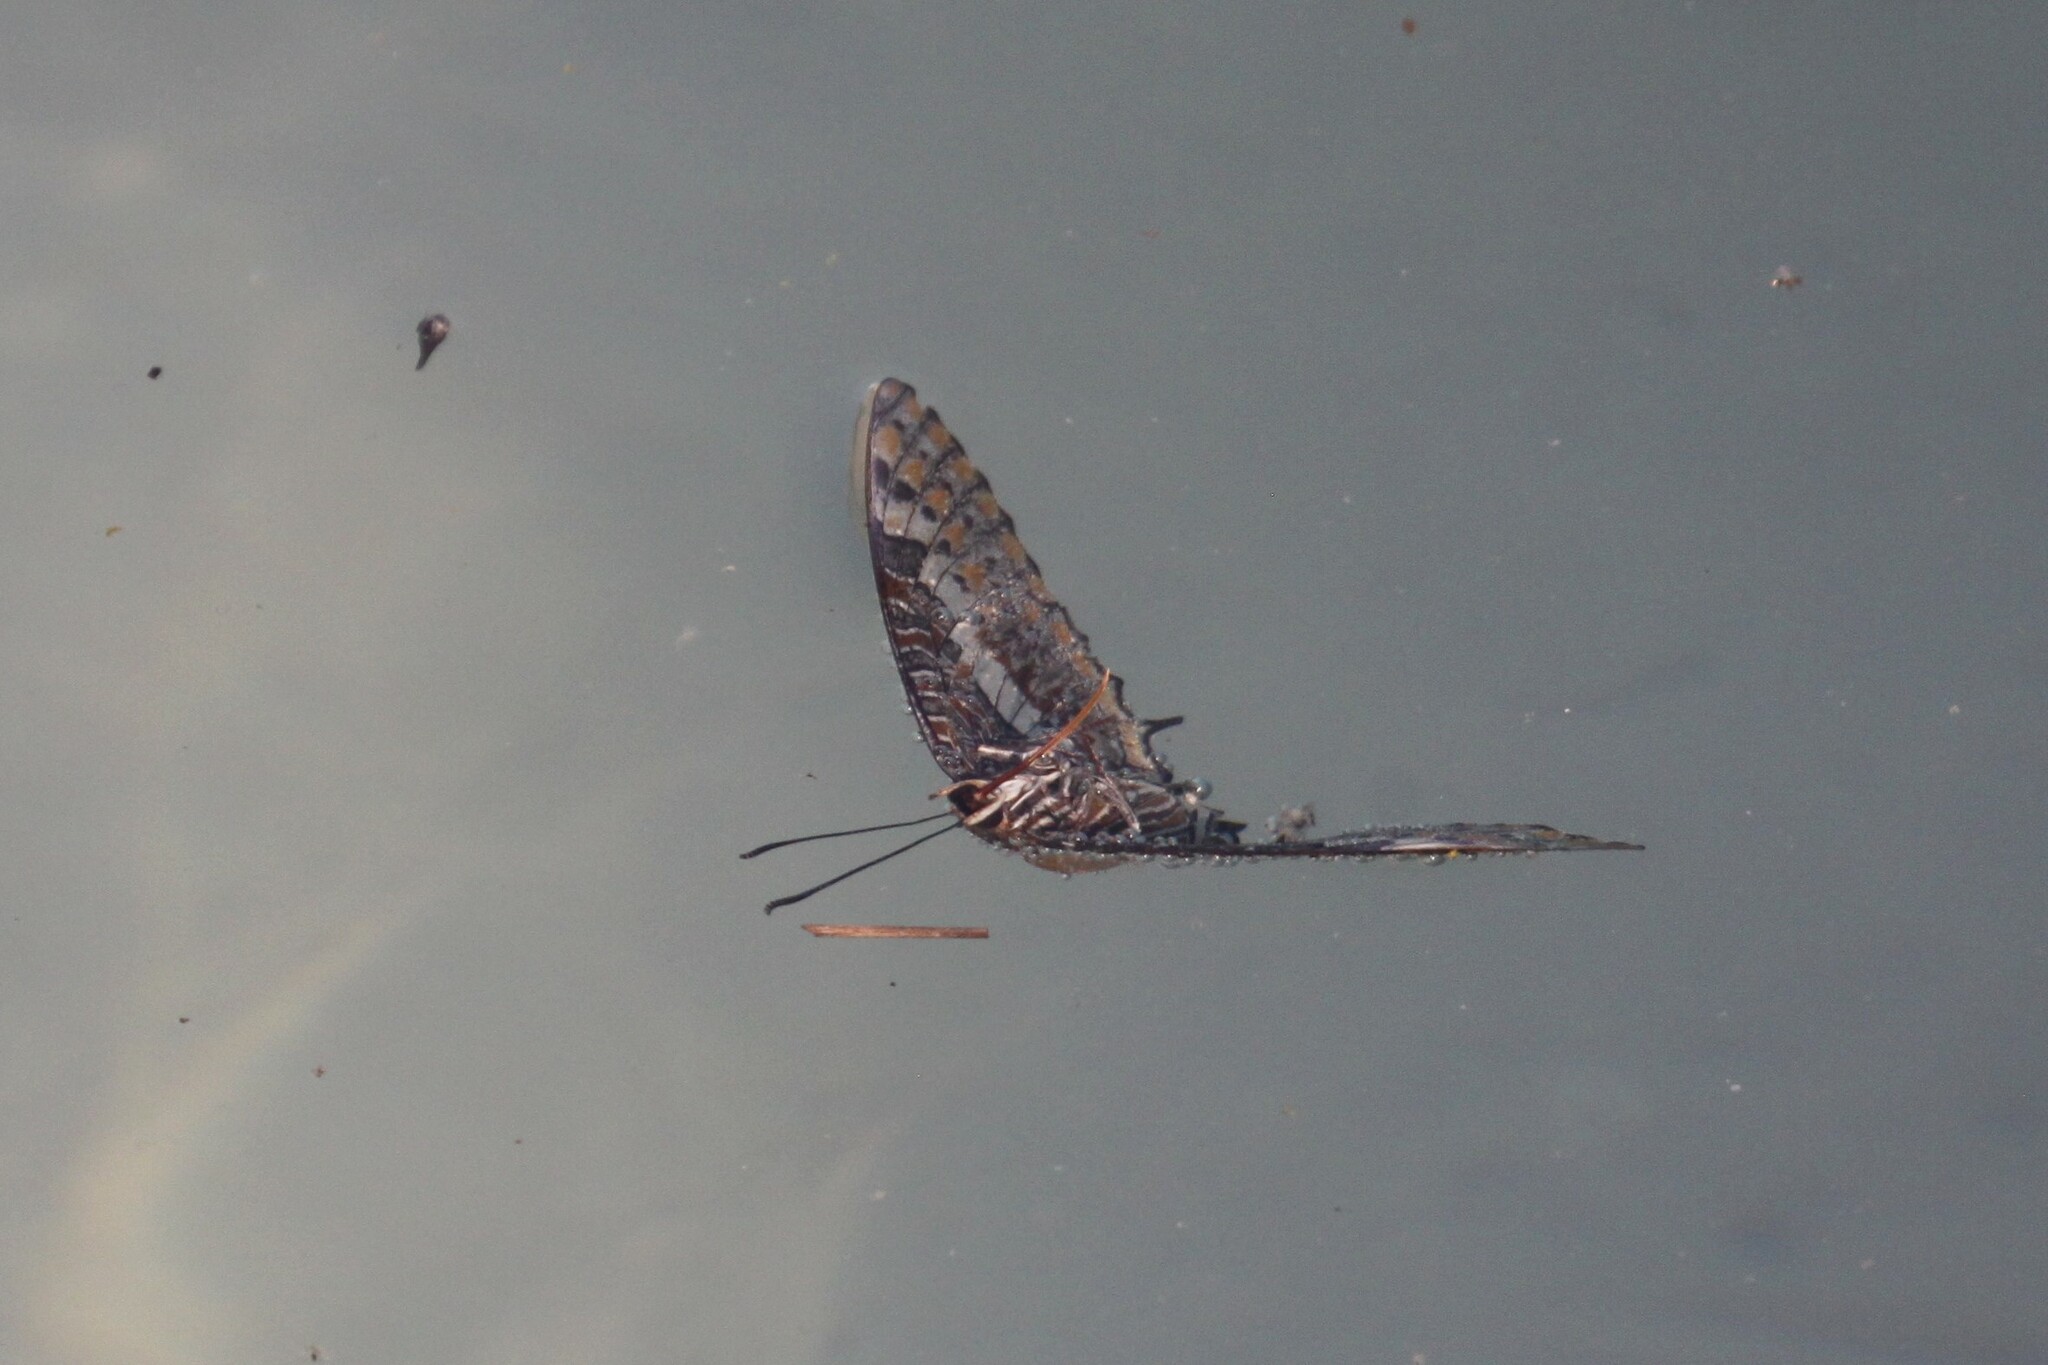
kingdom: Animalia
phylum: Arthropoda
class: Insecta
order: Lepidoptera
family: Nymphalidae
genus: Charaxes
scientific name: Charaxes jasius
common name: Two tailed pasha
